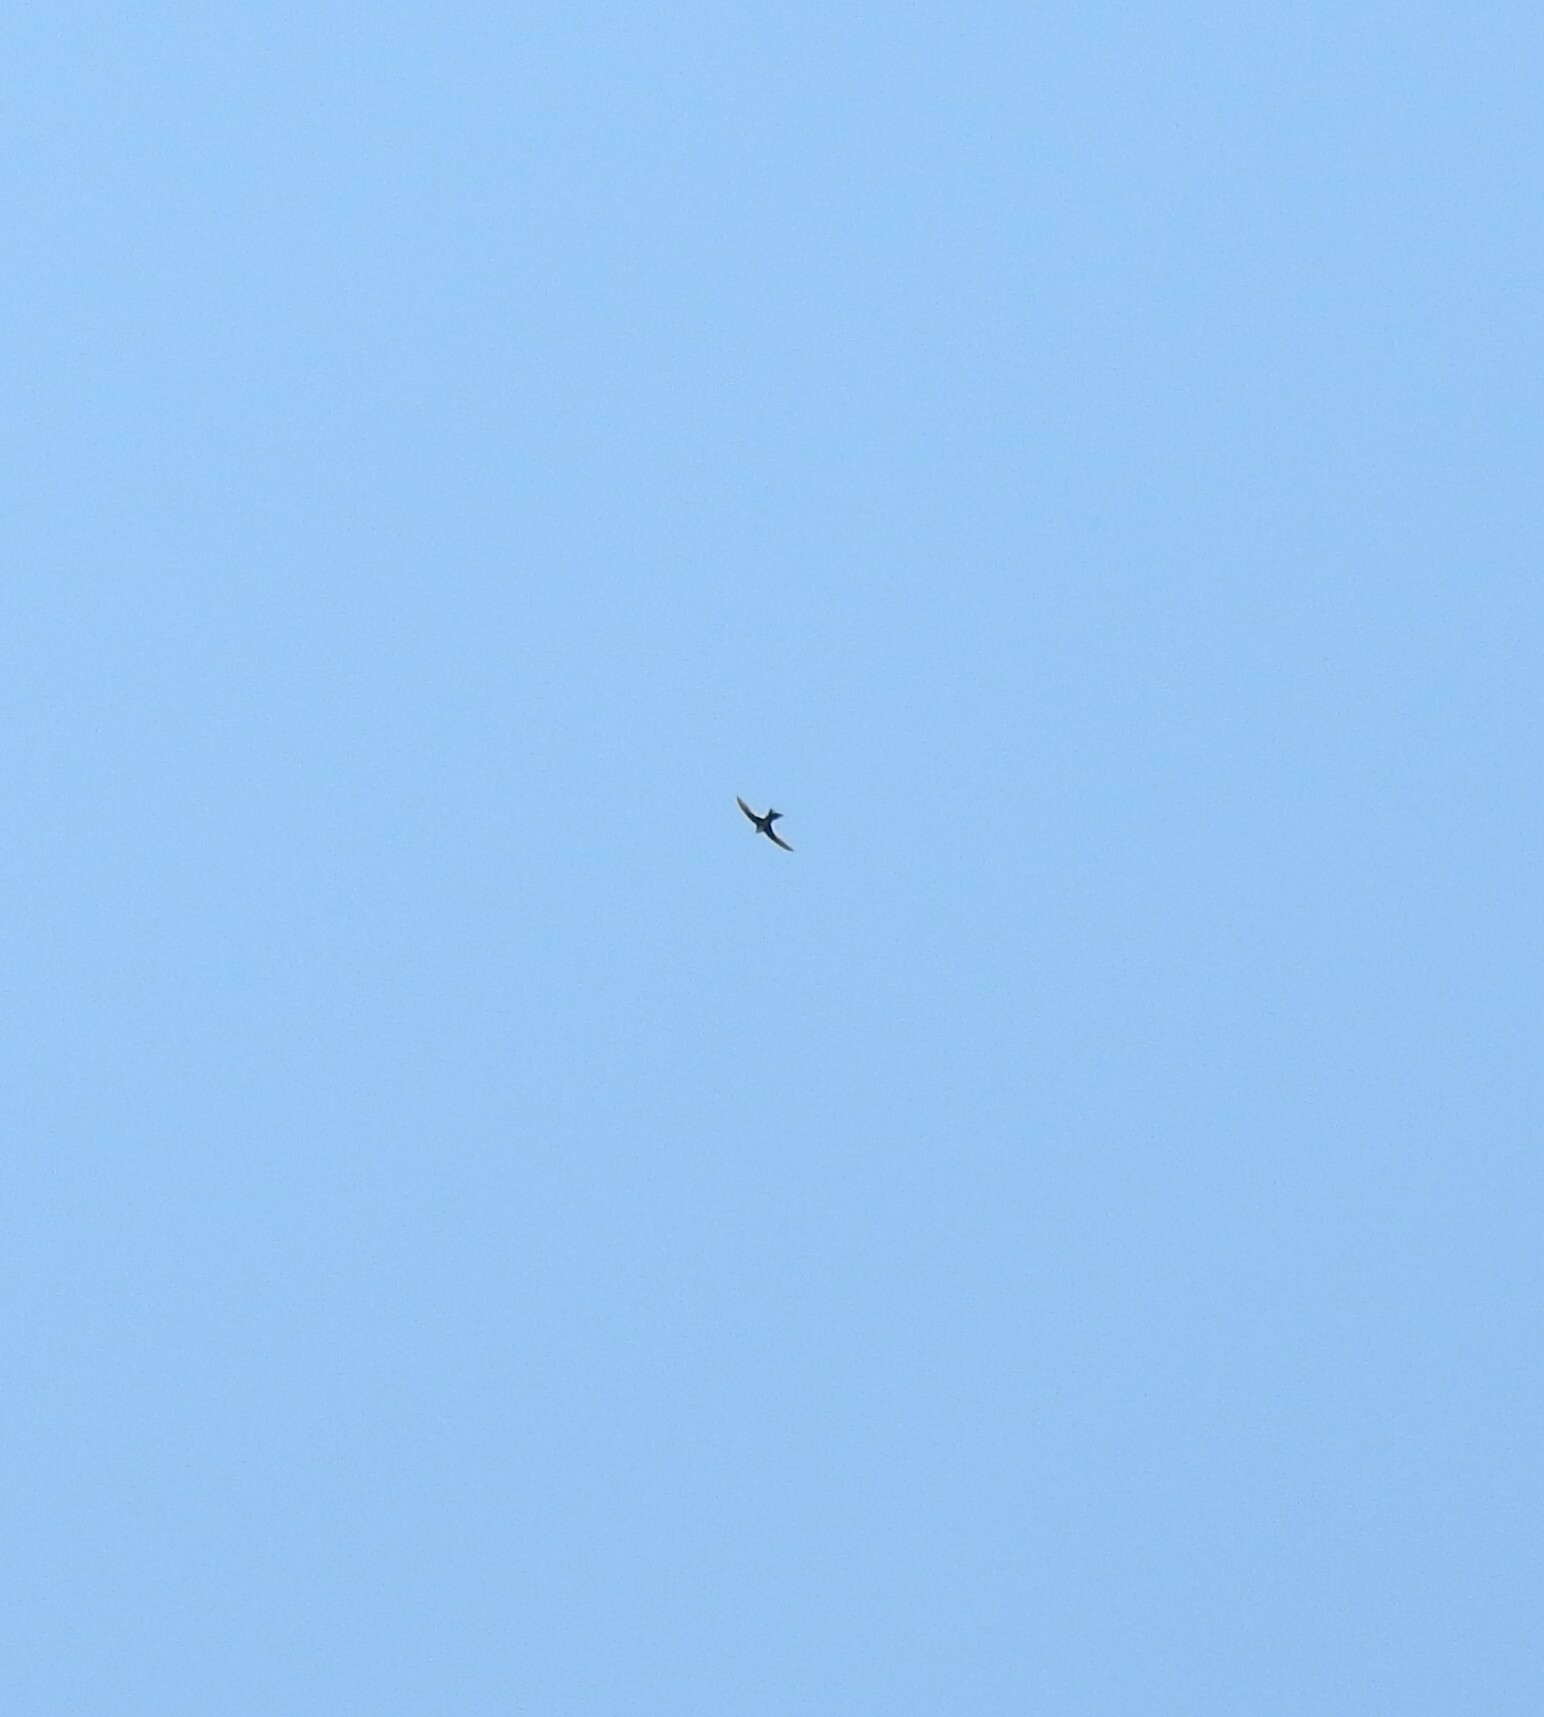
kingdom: Animalia
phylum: Chordata
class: Aves
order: Apodiformes
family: Apodidae
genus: Aeronautes
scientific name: Aeronautes saxatalis
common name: White-throated swift
